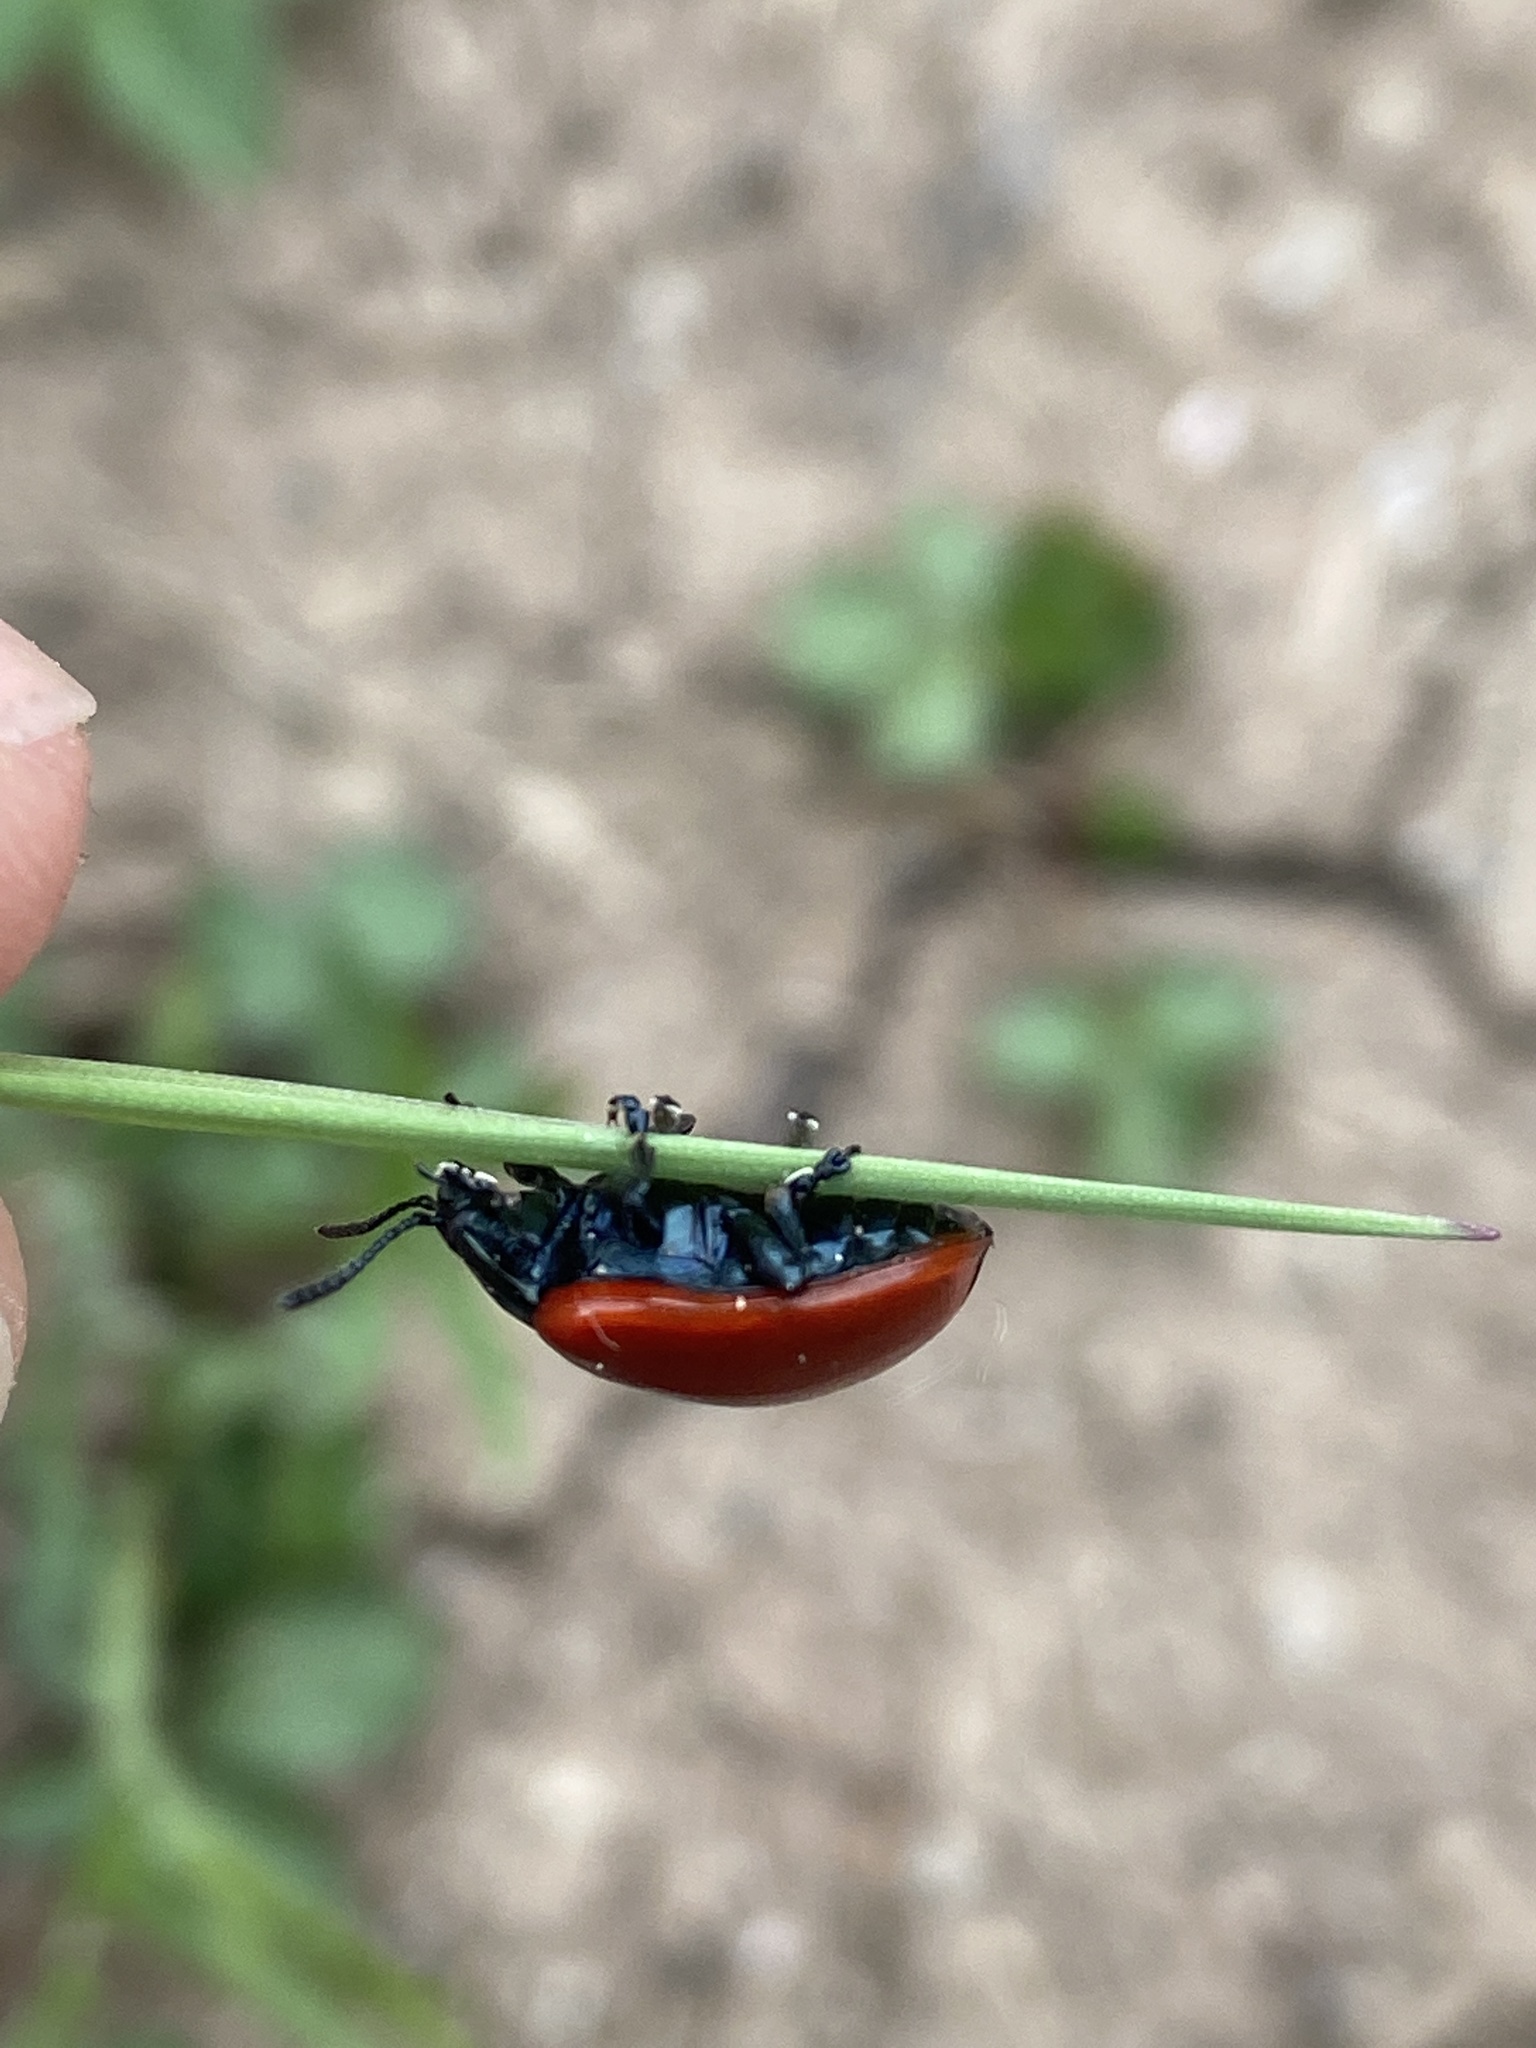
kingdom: Animalia
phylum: Arthropoda
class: Insecta
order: Coleoptera
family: Chrysomelidae
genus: Chrysomela
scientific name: Chrysomela populi
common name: Red poplar leaf beetle
